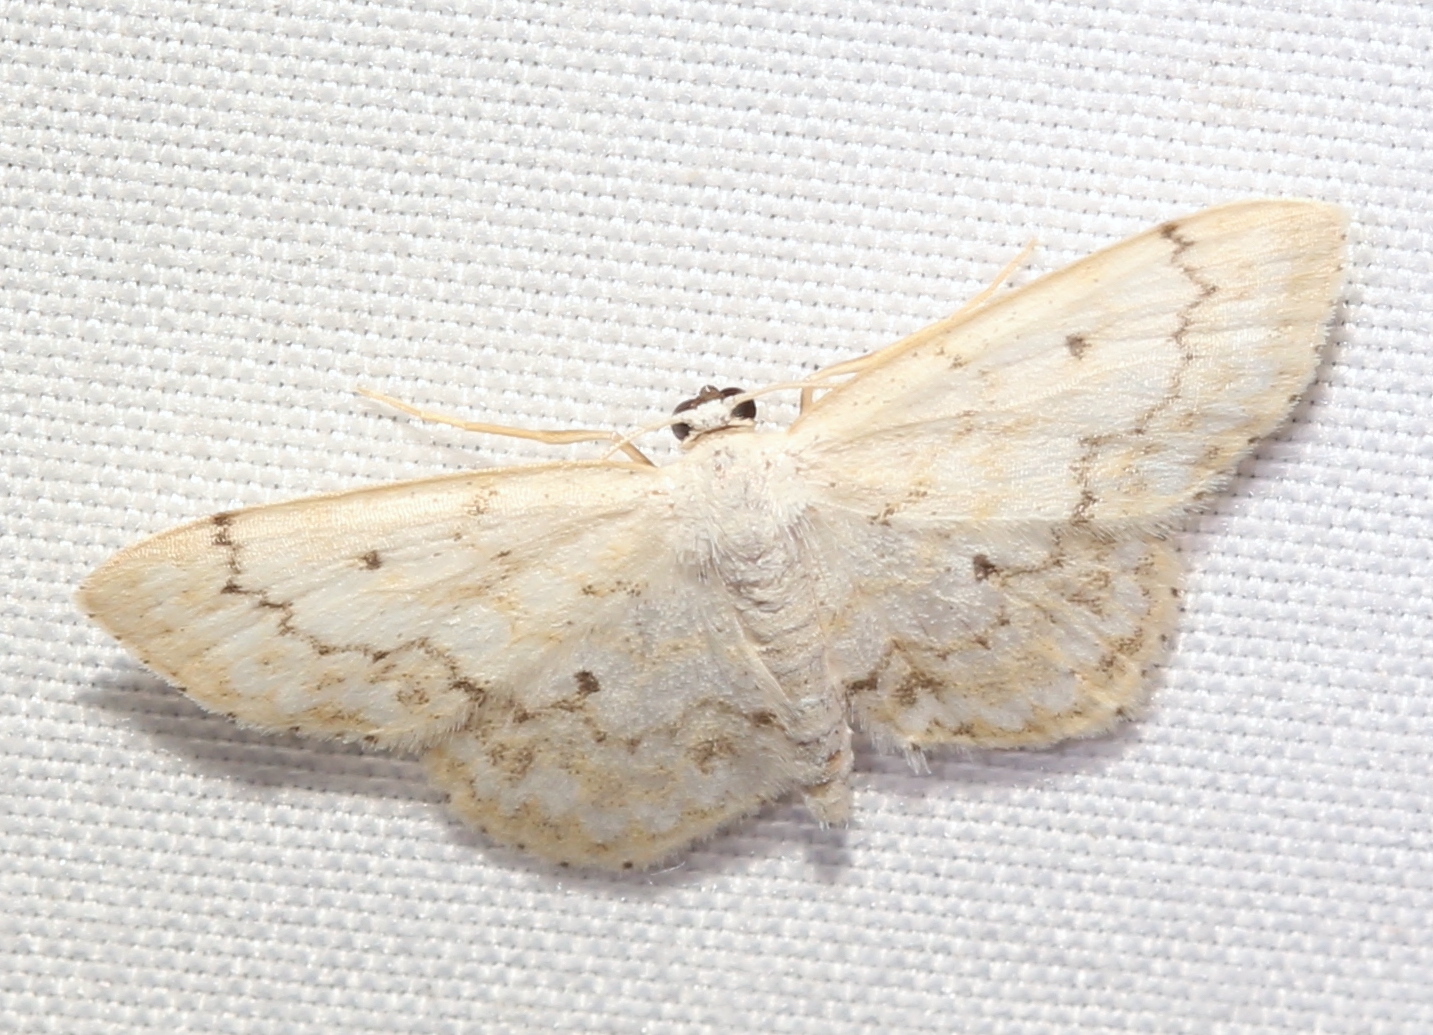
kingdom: Animalia
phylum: Arthropoda
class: Insecta
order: Lepidoptera
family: Geometridae
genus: Idaea
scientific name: Idaea obfusaria
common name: Rippled wave
